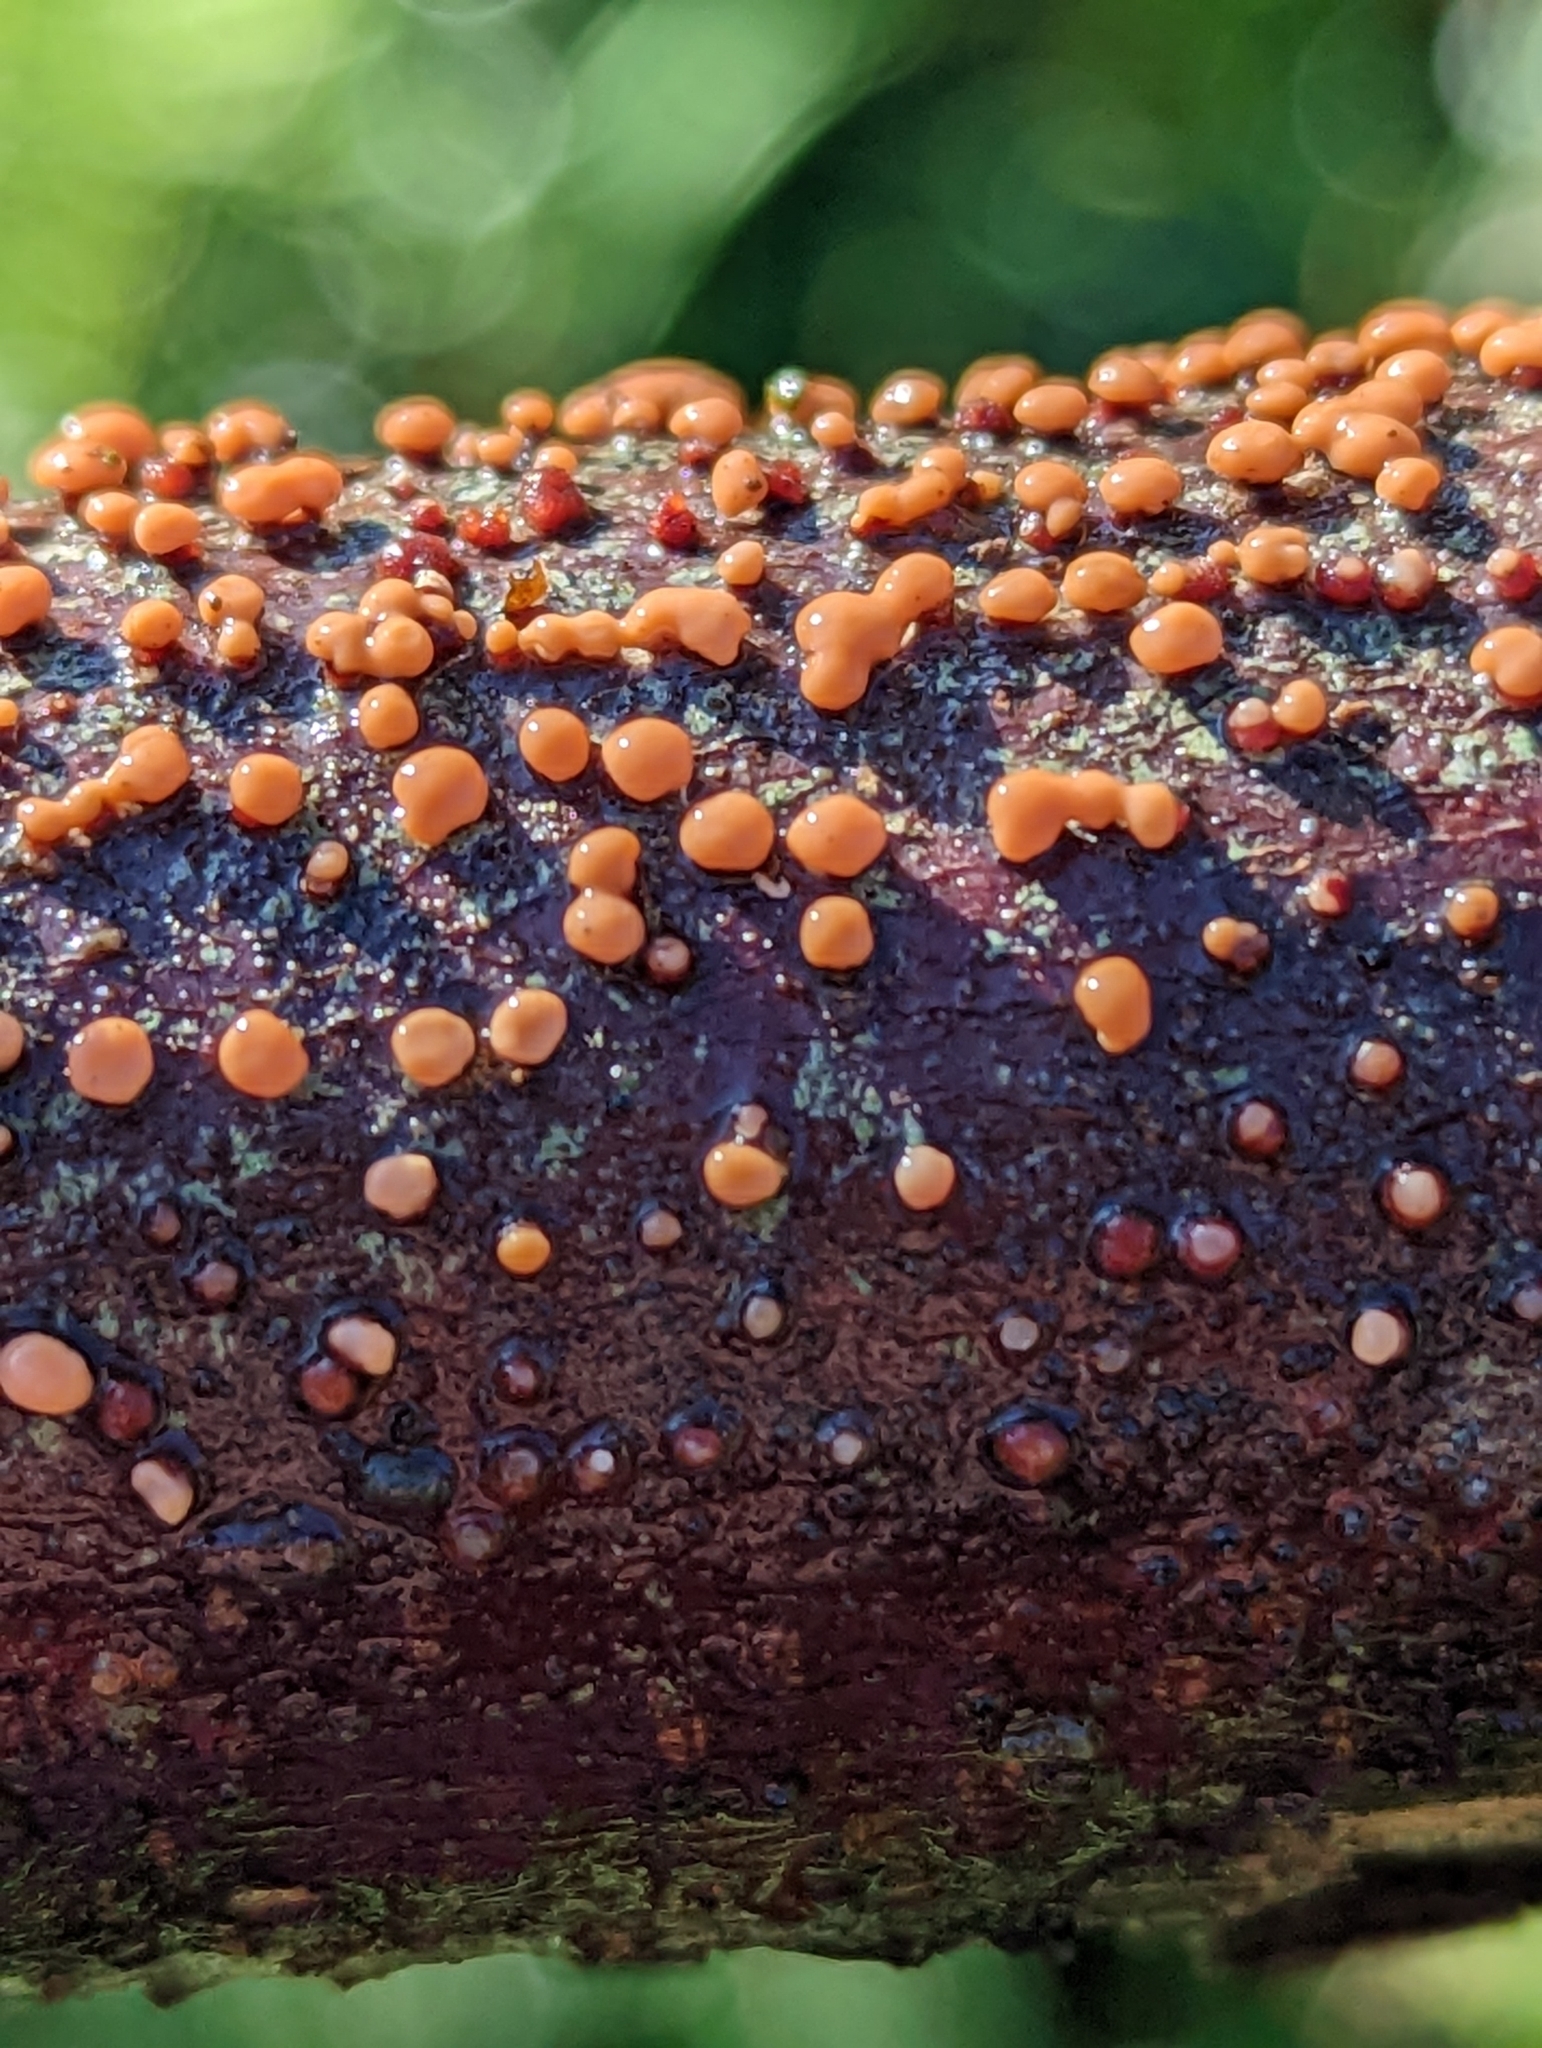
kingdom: Fungi
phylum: Ascomycota
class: Sordariomycetes
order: Hypocreales
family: Nectriaceae
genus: Nectria
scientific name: Nectria cinnabarina
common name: Coral spot
